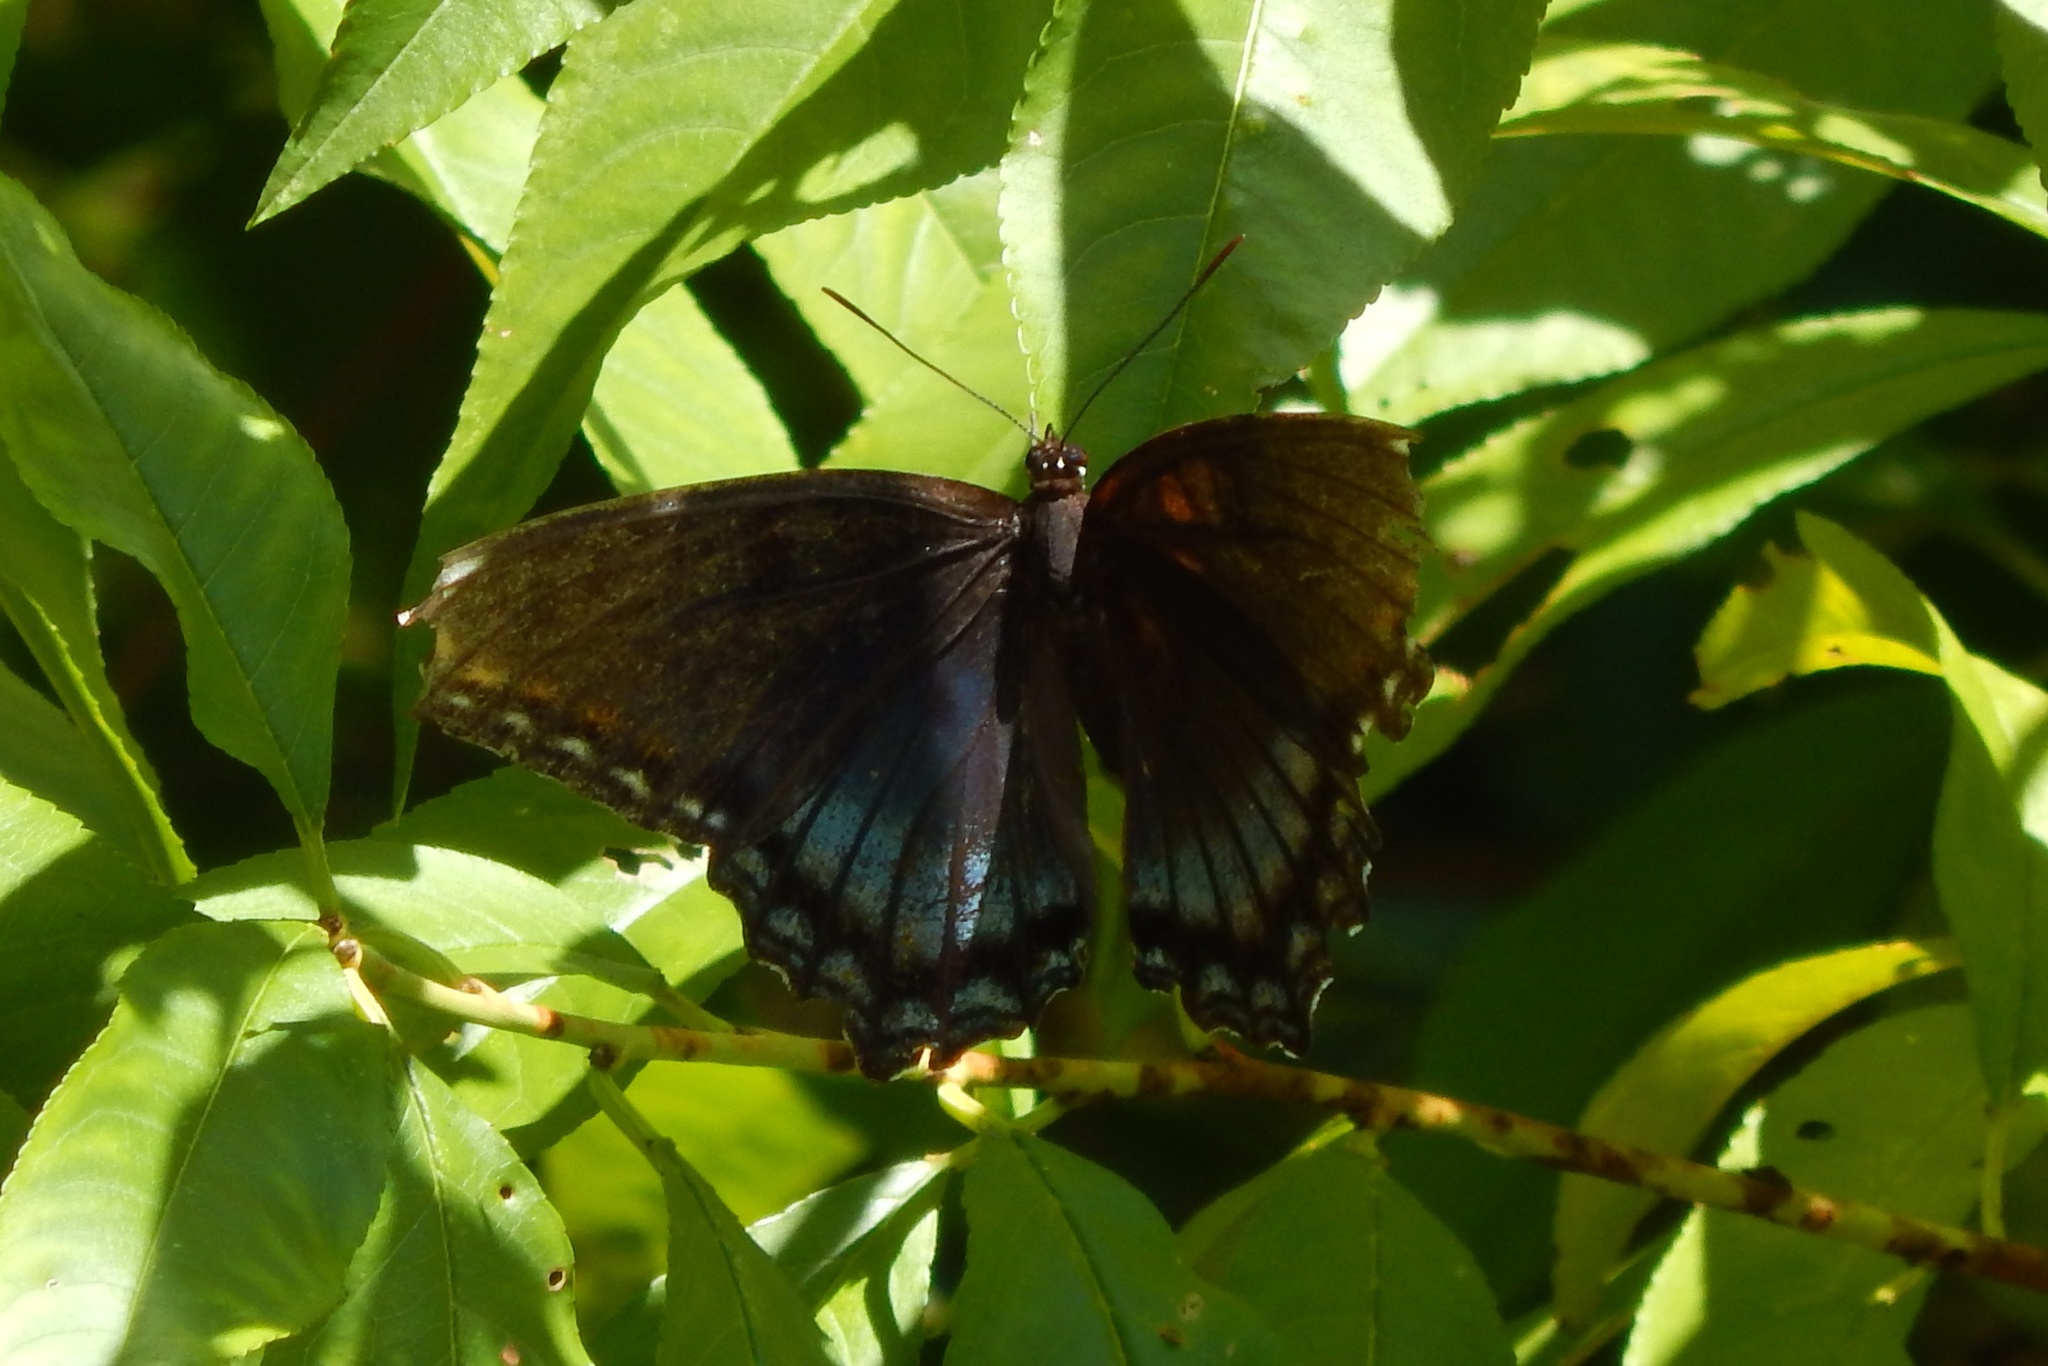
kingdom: Animalia
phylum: Arthropoda
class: Insecta
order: Lepidoptera
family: Nymphalidae
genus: Limenitis
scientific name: Limenitis arthemis
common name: Red-spotted admiral
